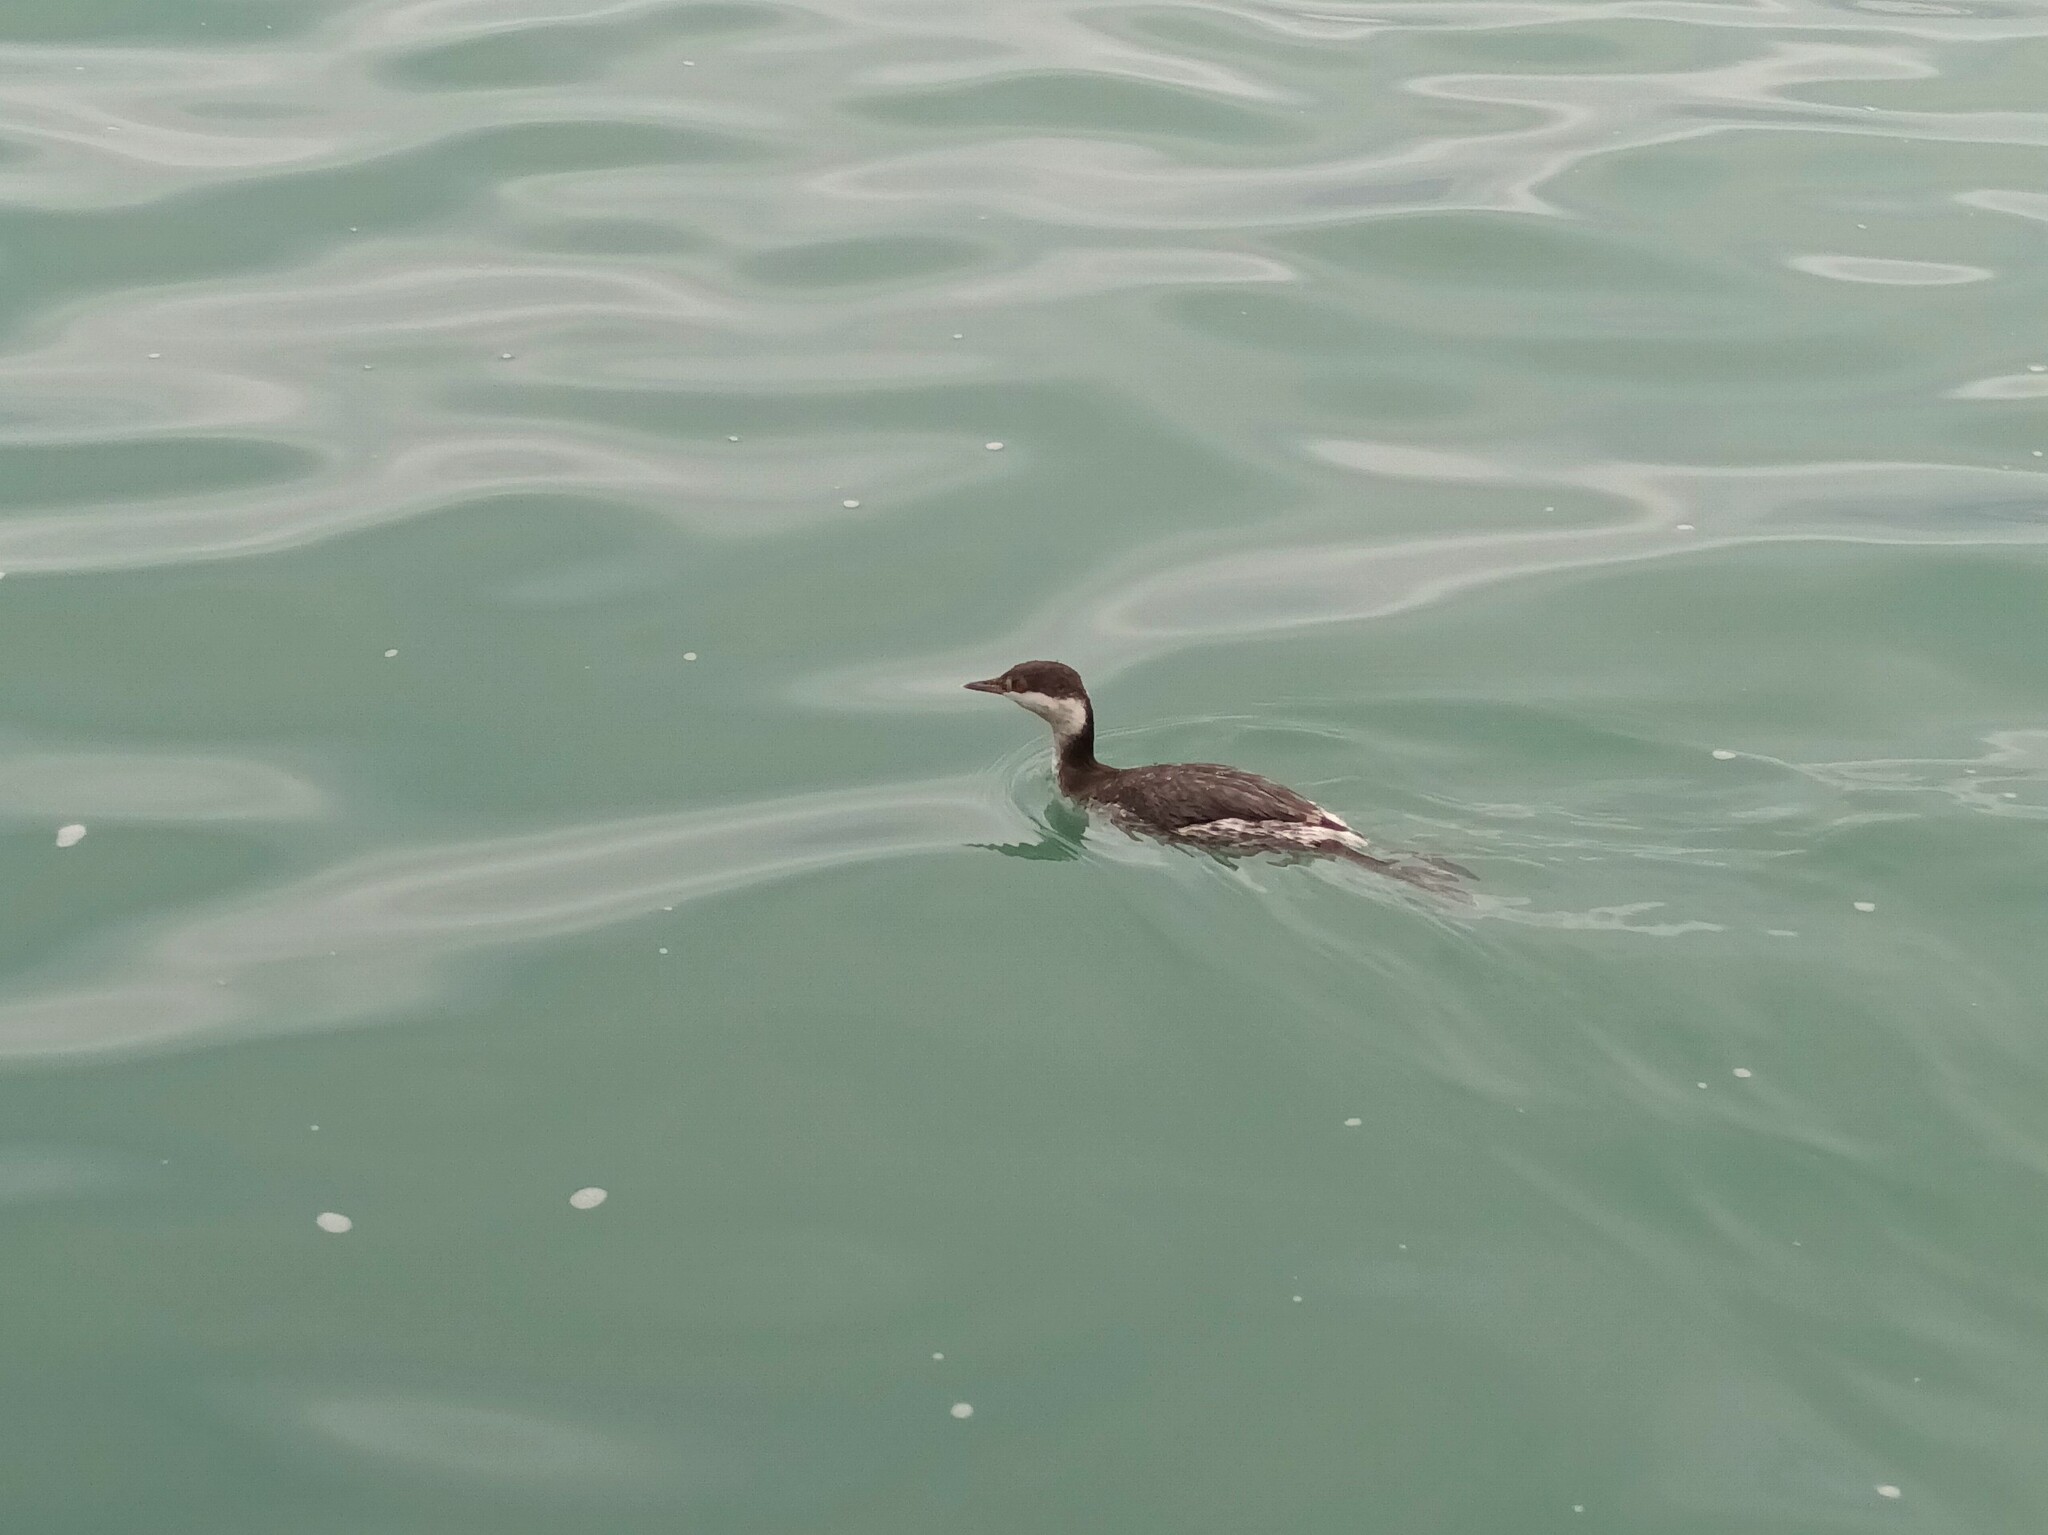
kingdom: Animalia
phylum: Chordata
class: Aves
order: Podicipediformes
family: Podicipedidae
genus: Podiceps
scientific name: Podiceps auritus
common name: Horned grebe
